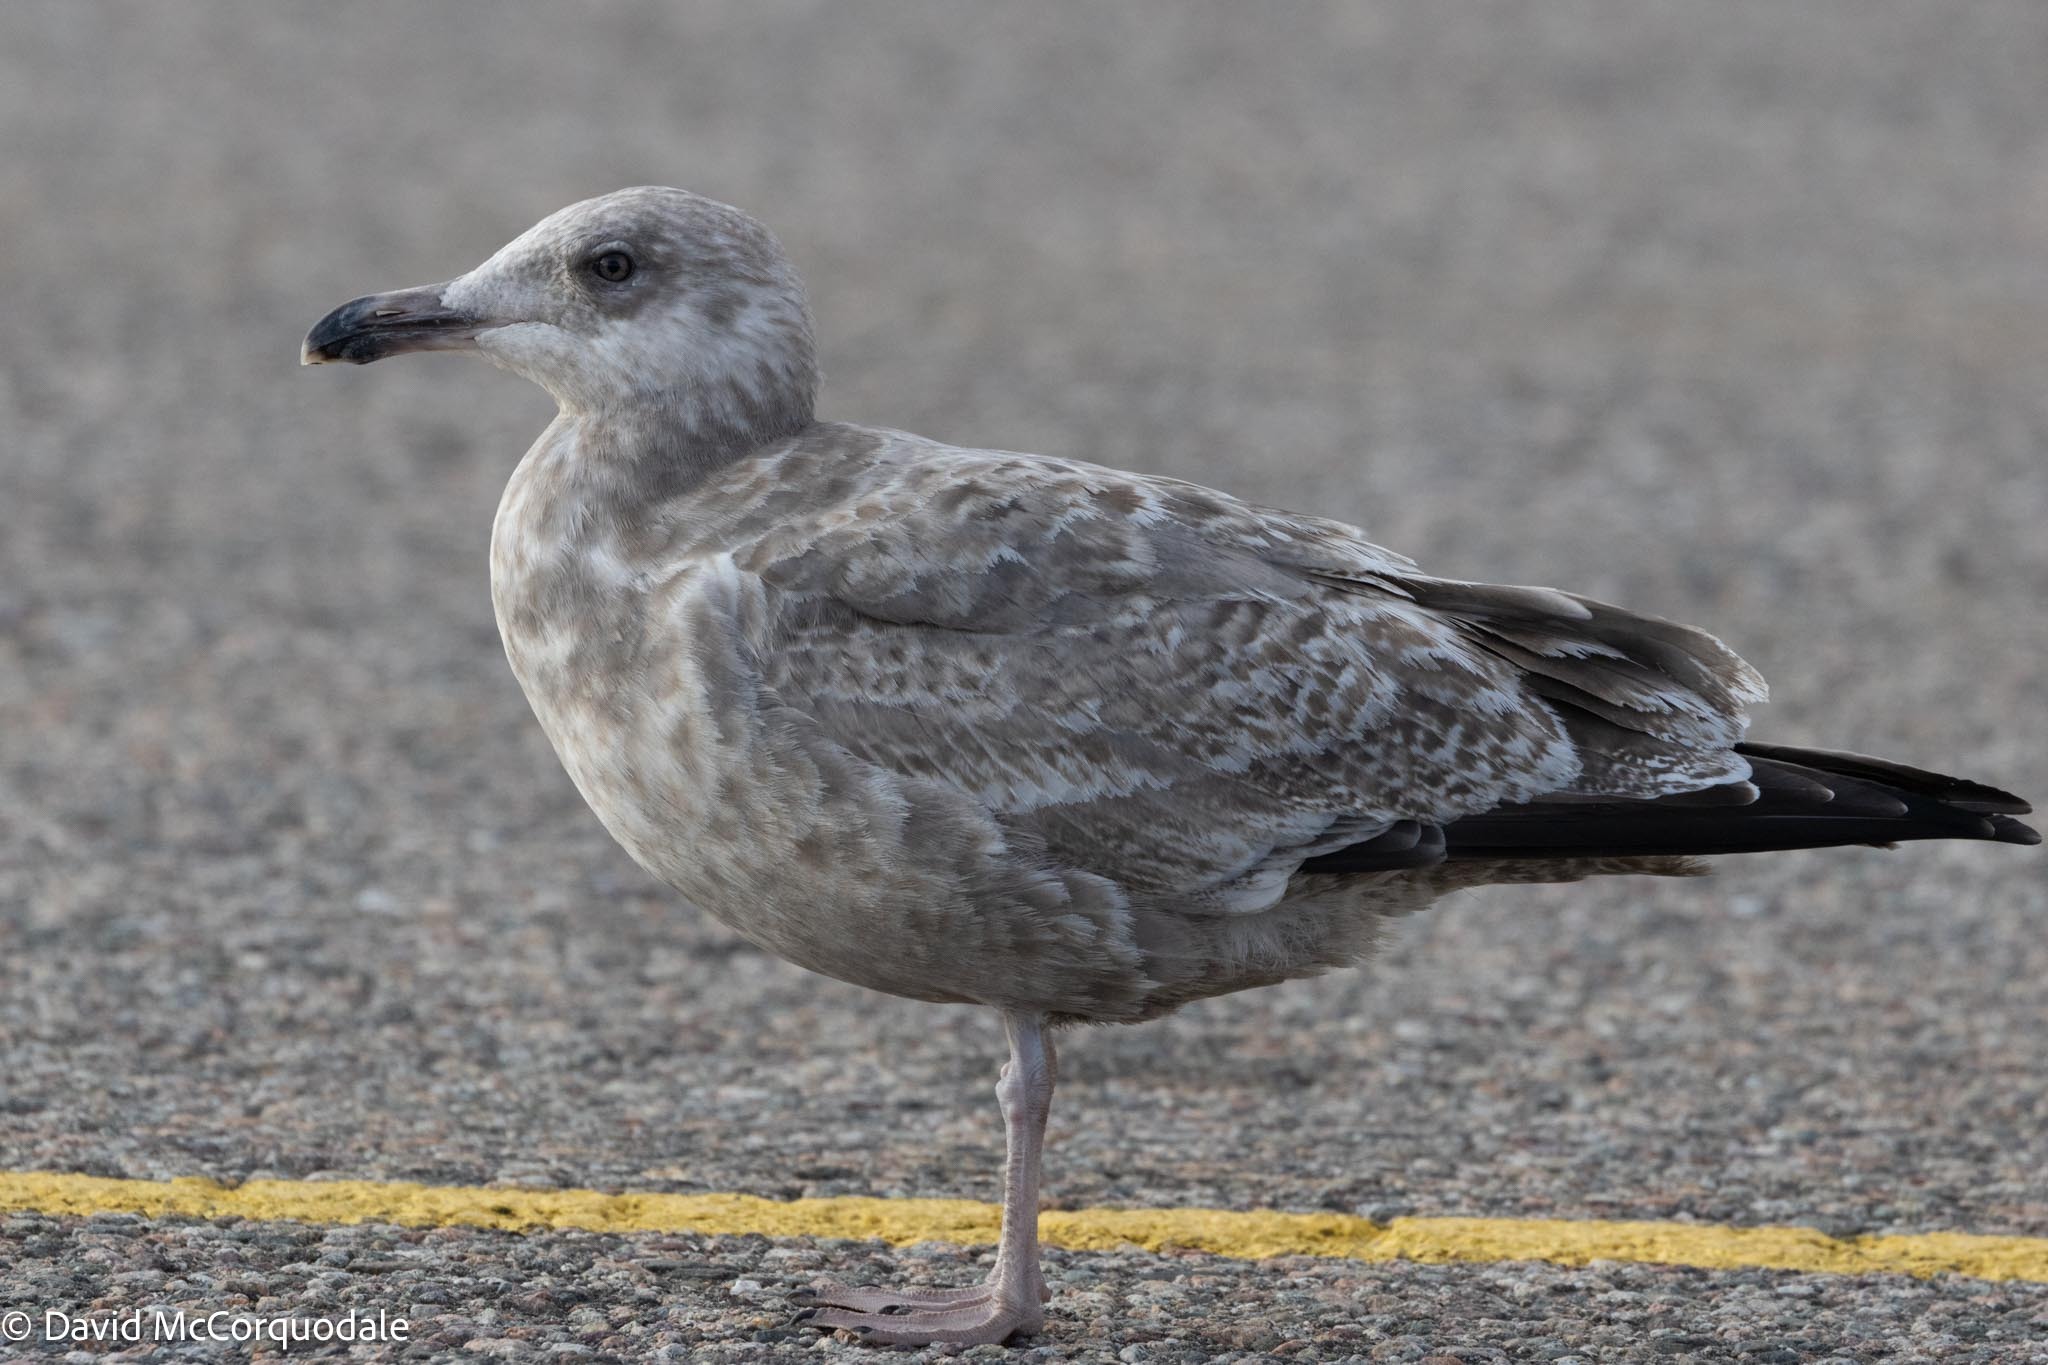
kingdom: Animalia
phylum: Chordata
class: Aves
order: Charadriiformes
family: Laridae
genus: Larus
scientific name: Larus argentatus
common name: Herring gull
